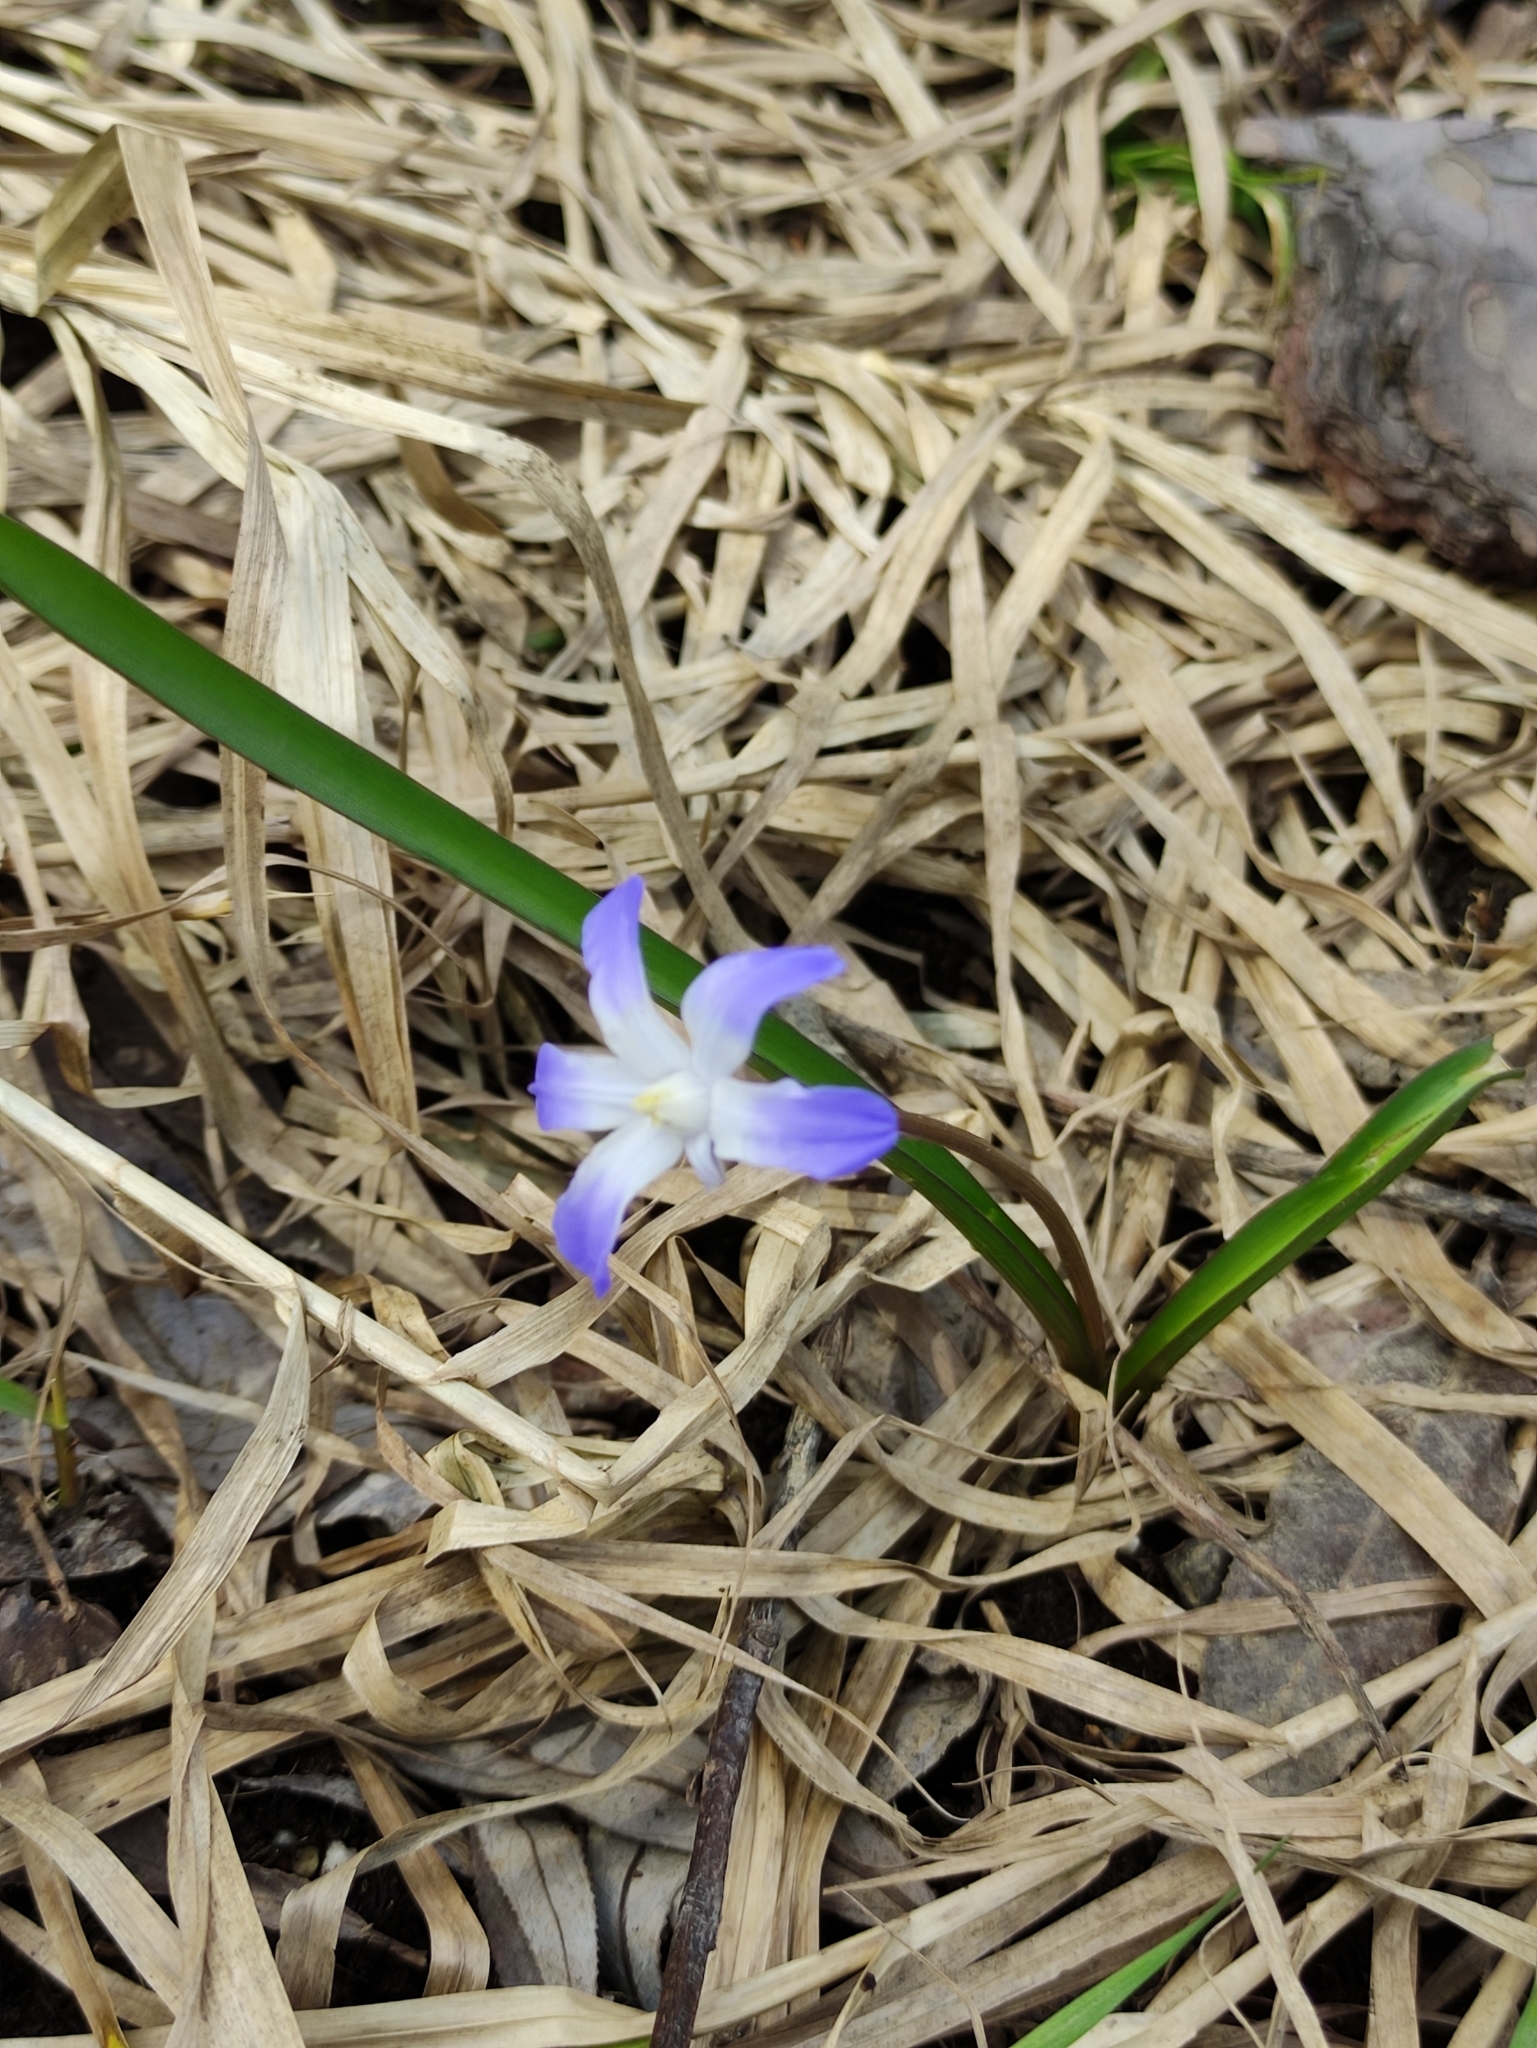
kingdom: Plantae
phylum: Tracheophyta
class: Liliopsida
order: Asparagales
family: Asparagaceae
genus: Scilla
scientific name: Scilla luciliae
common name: Boissier's glory-of-the-snow
